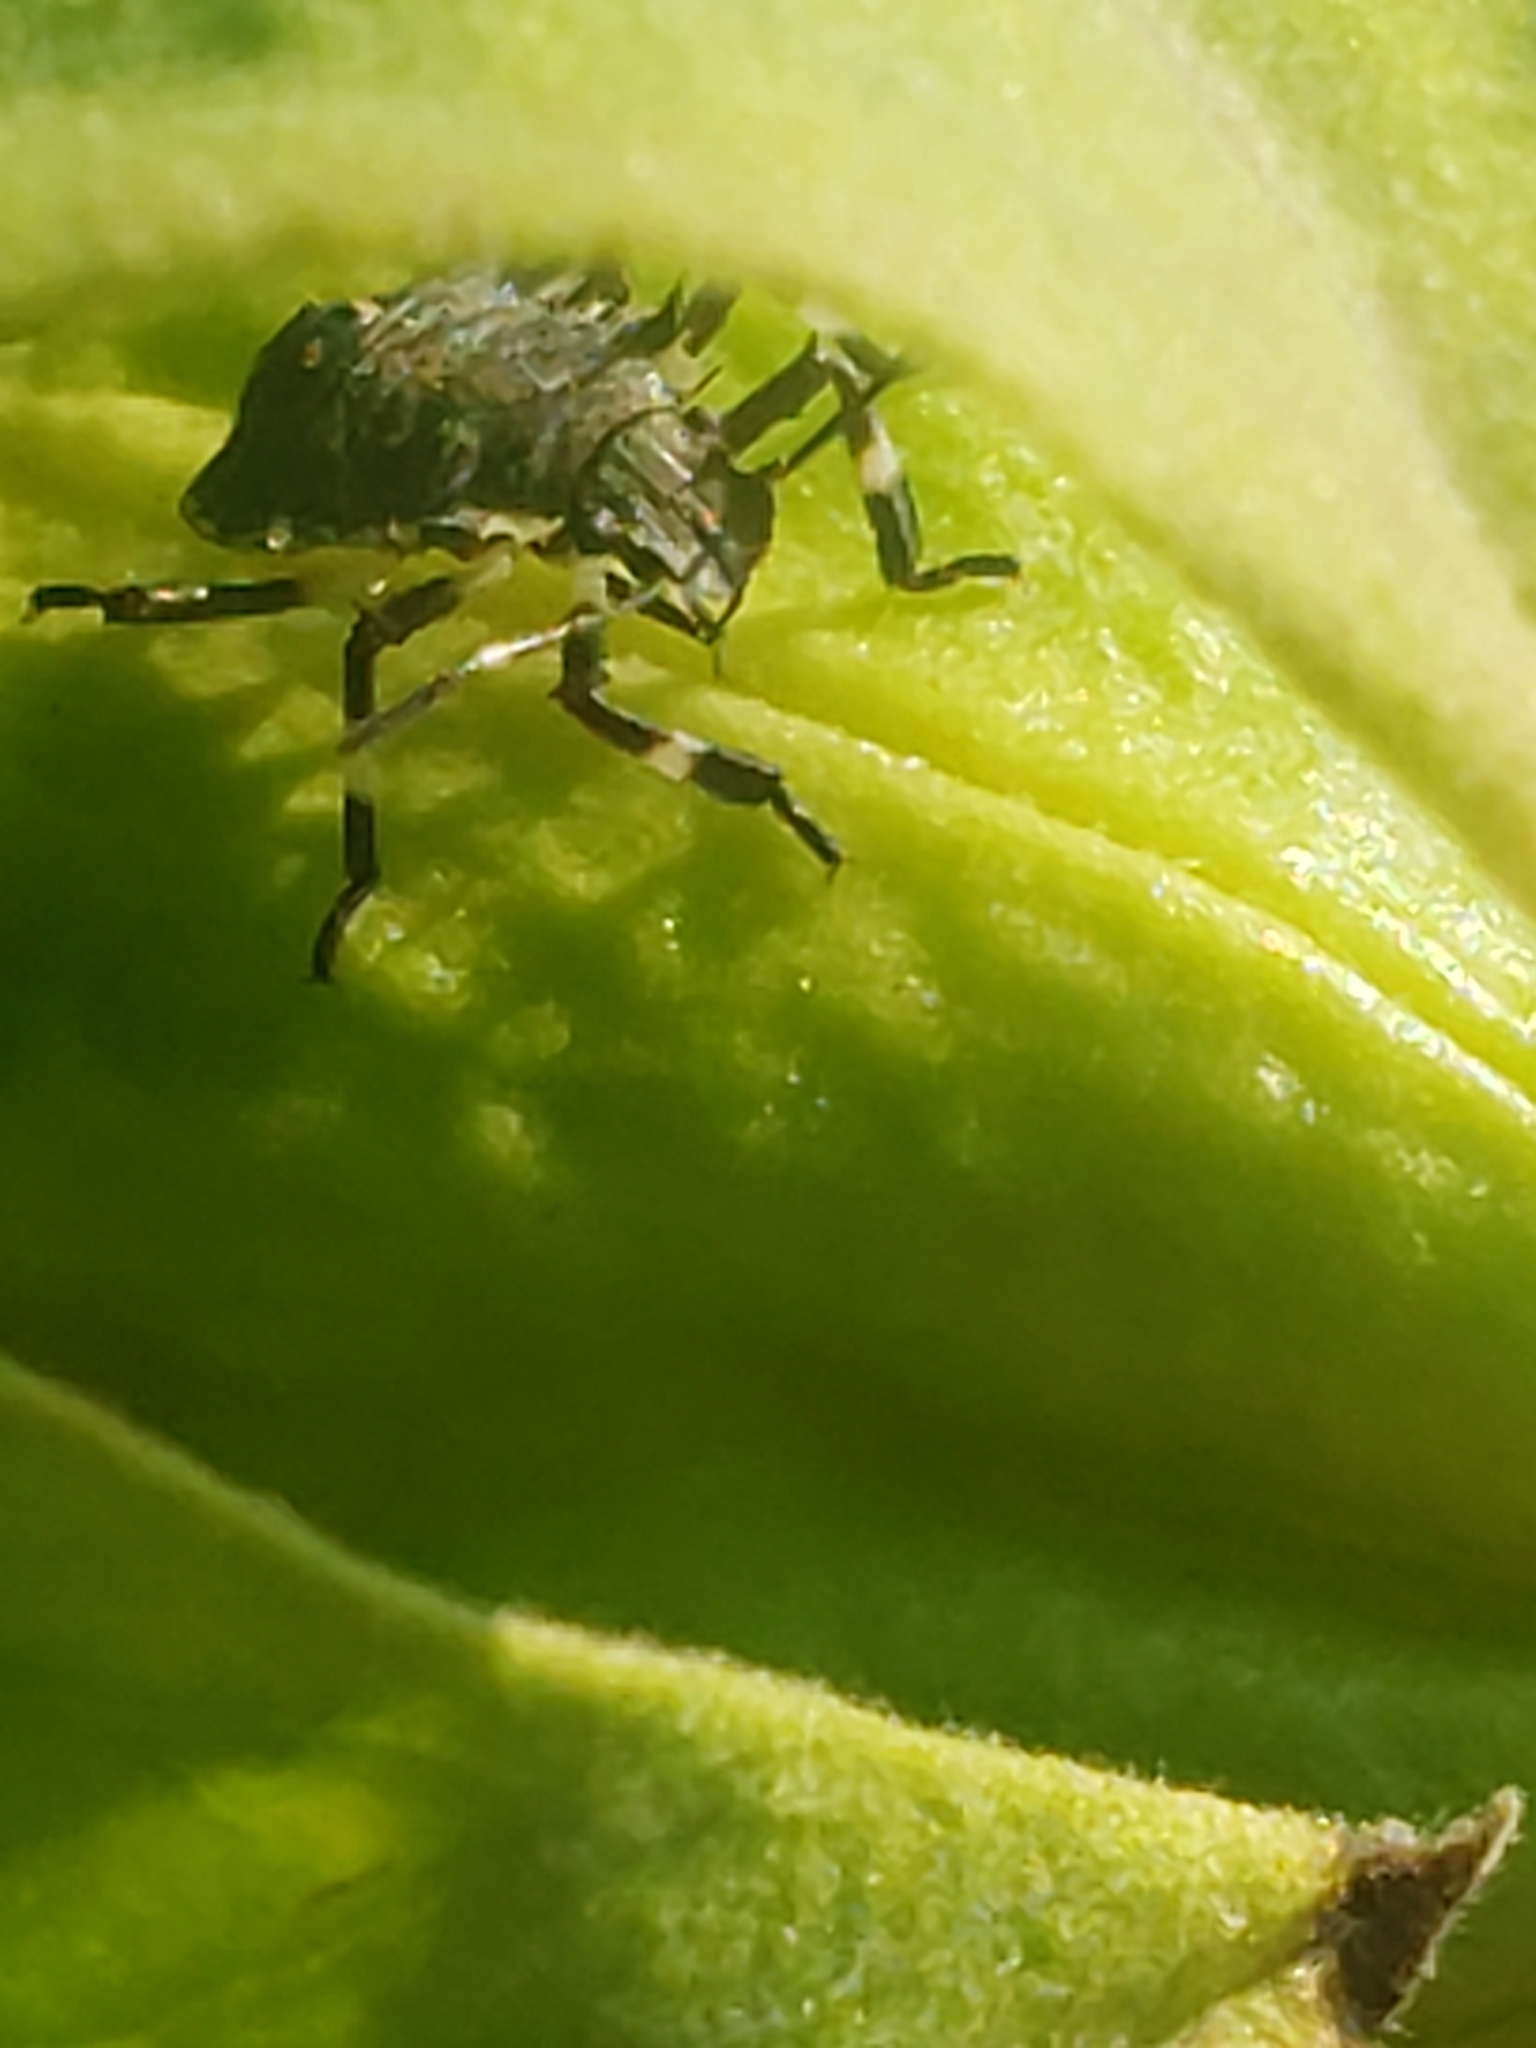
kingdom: Animalia
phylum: Arthropoda
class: Insecta
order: Hemiptera
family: Pentatomidae
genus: Halyomorpha
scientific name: Halyomorpha halys
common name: Brown marmorated stink bug
